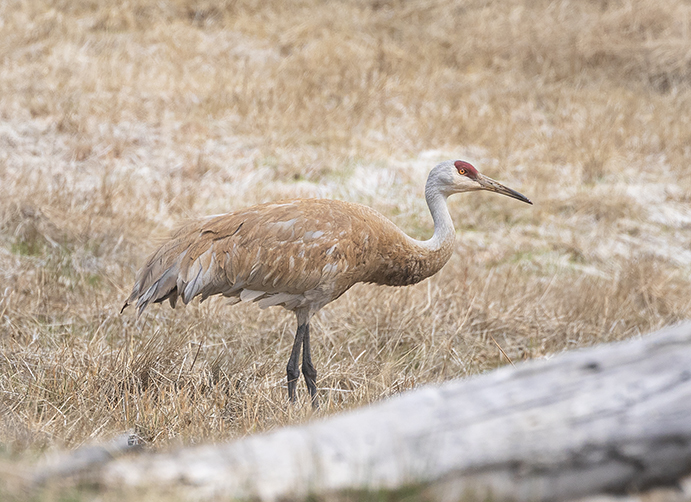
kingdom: Animalia
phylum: Chordata
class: Aves
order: Gruiformes
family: Gruidae
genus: Grus
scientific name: Grus canadensis
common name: Sandhill crane
